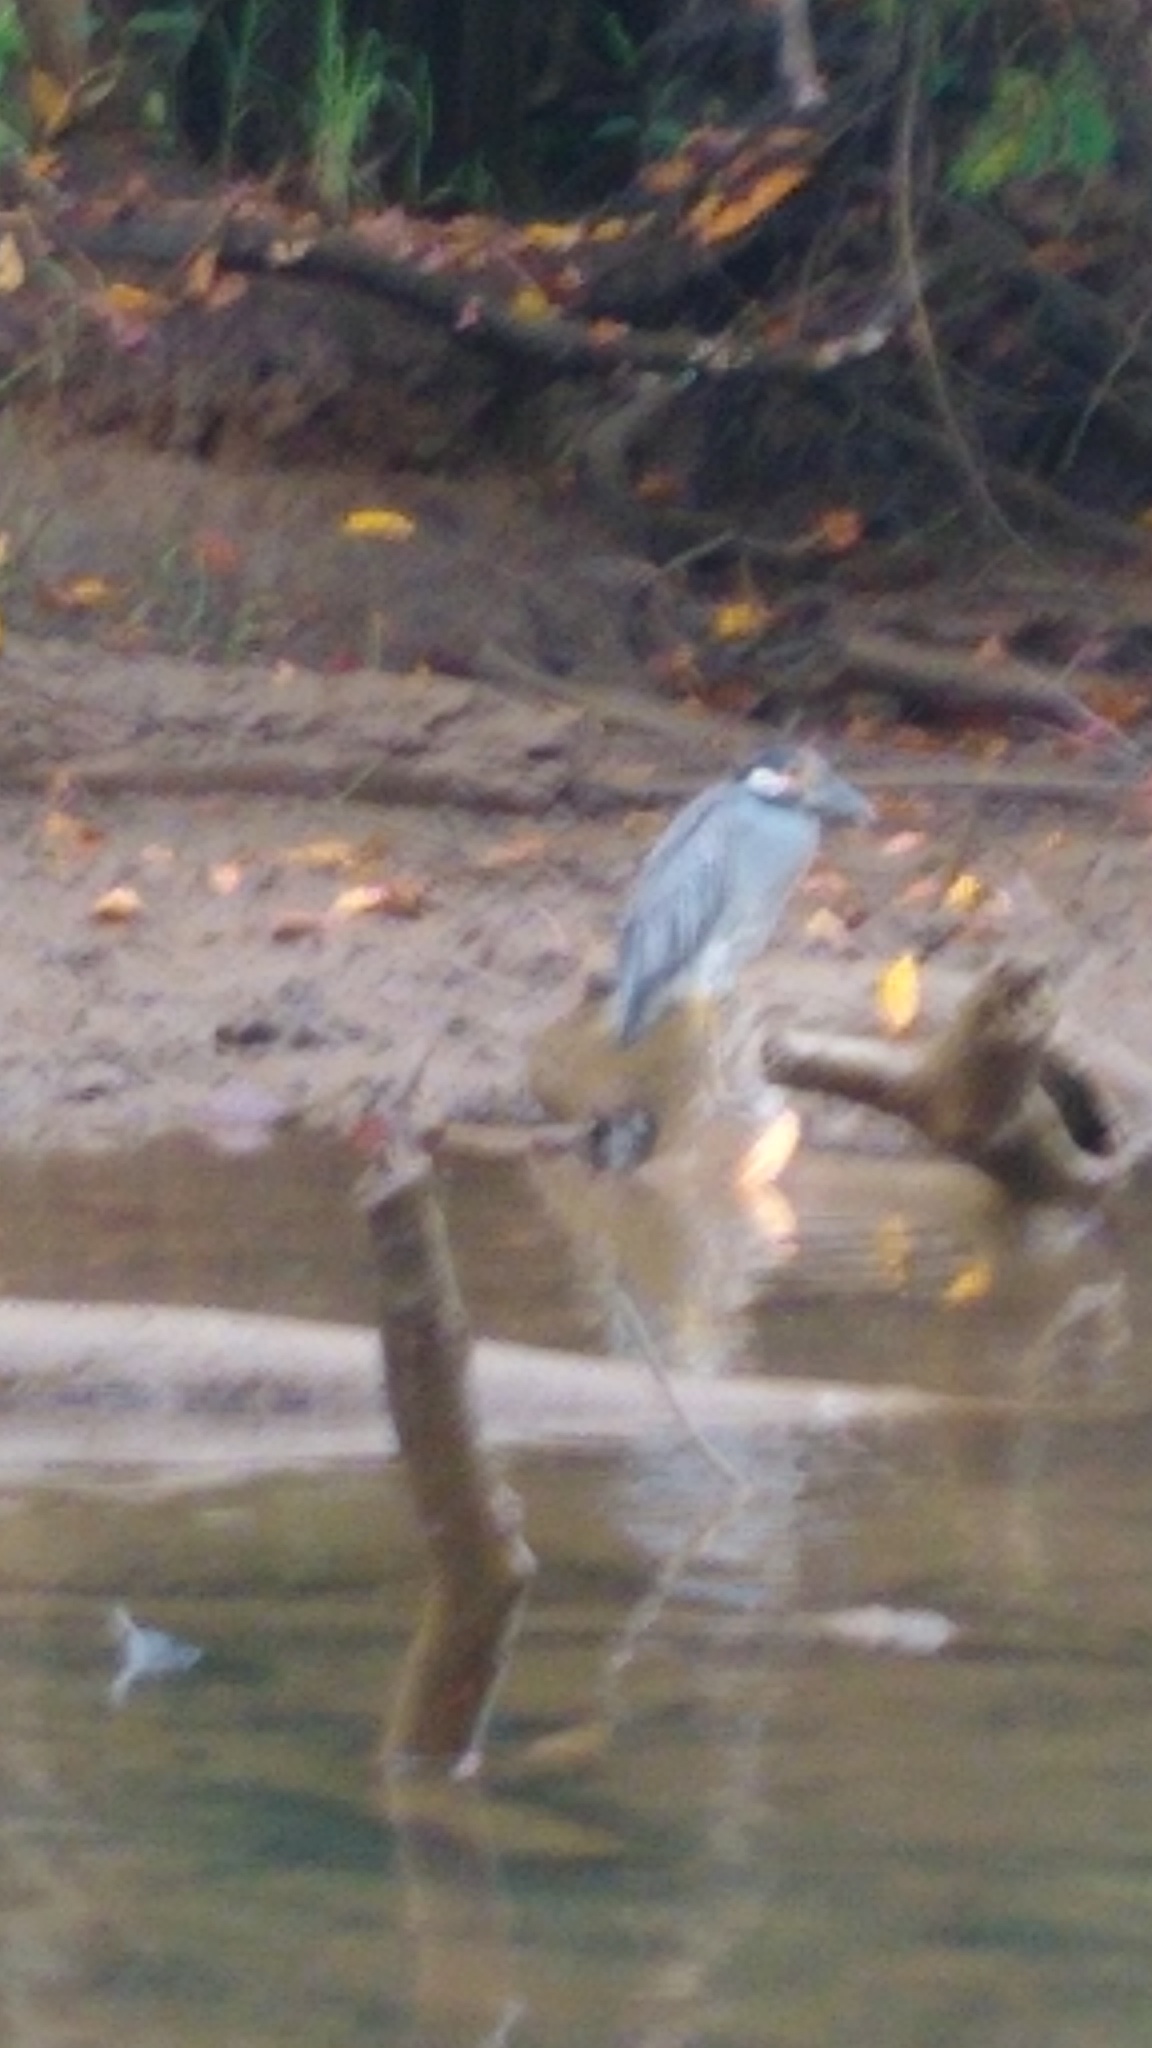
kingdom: Animalia
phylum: Chordata
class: Aves
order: Pelecaniformes
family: Ardeidae
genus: Nyctanassa
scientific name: Nyctanassa violacea
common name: Yellow-crowned night heron
